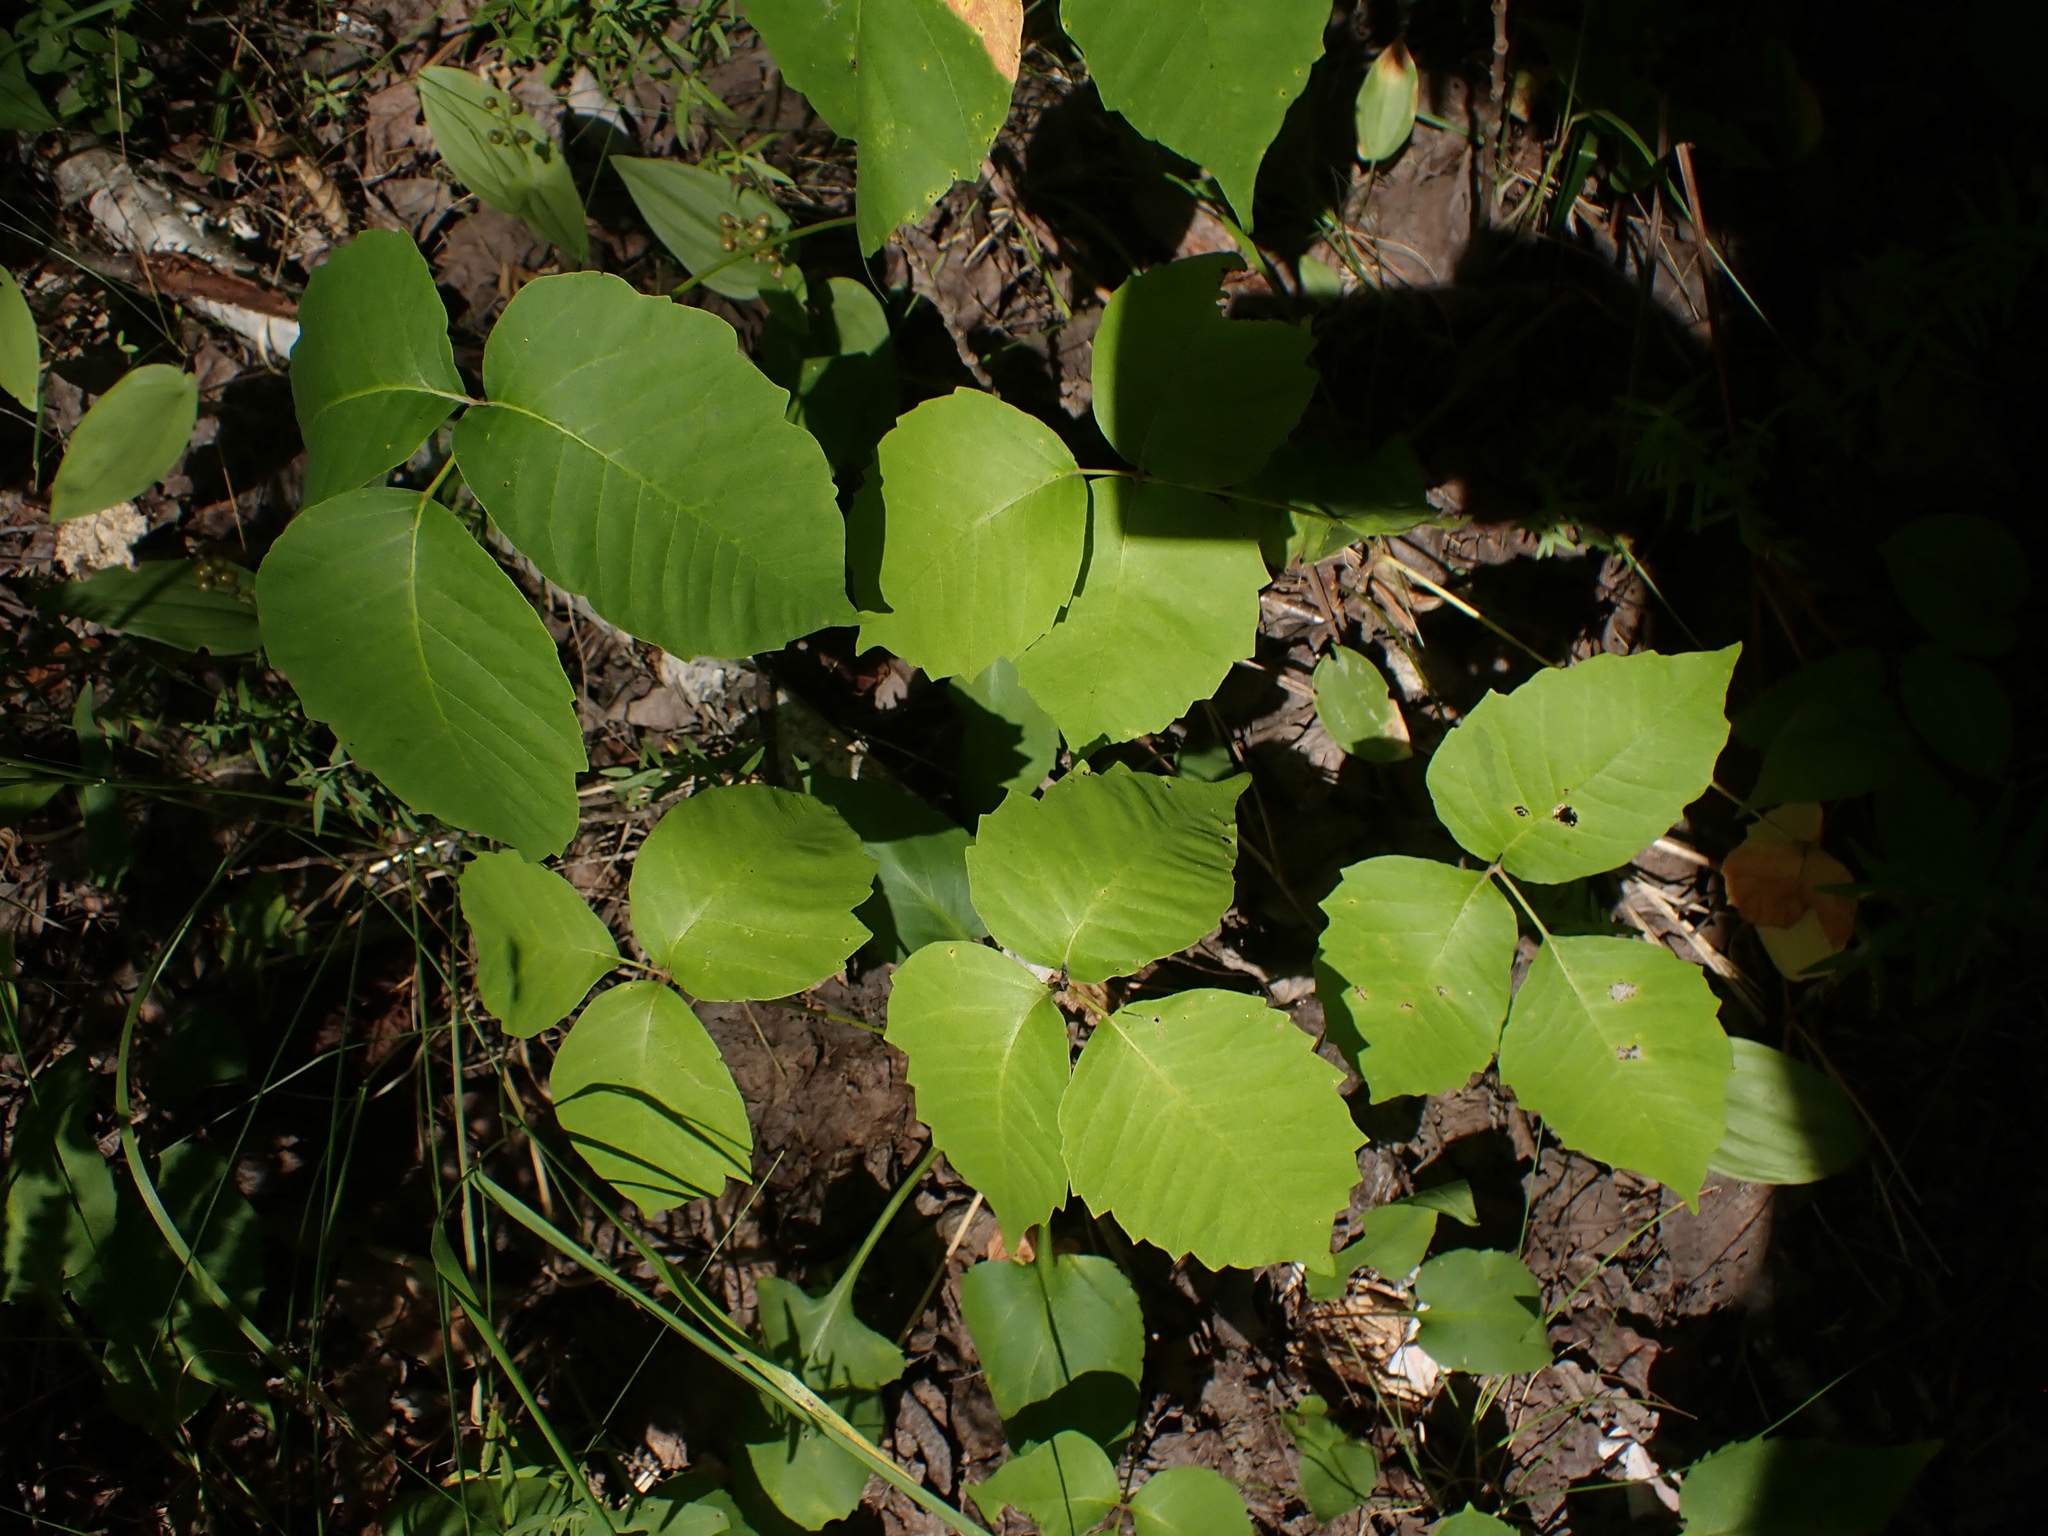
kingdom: Plantae
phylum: Tracheophyta
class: Magnoliopsida
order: Sapindales
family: Anacardiaceae
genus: Toxicodendron
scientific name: Toxicodendron rydbergii
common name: Rydberg's poison-ivy
